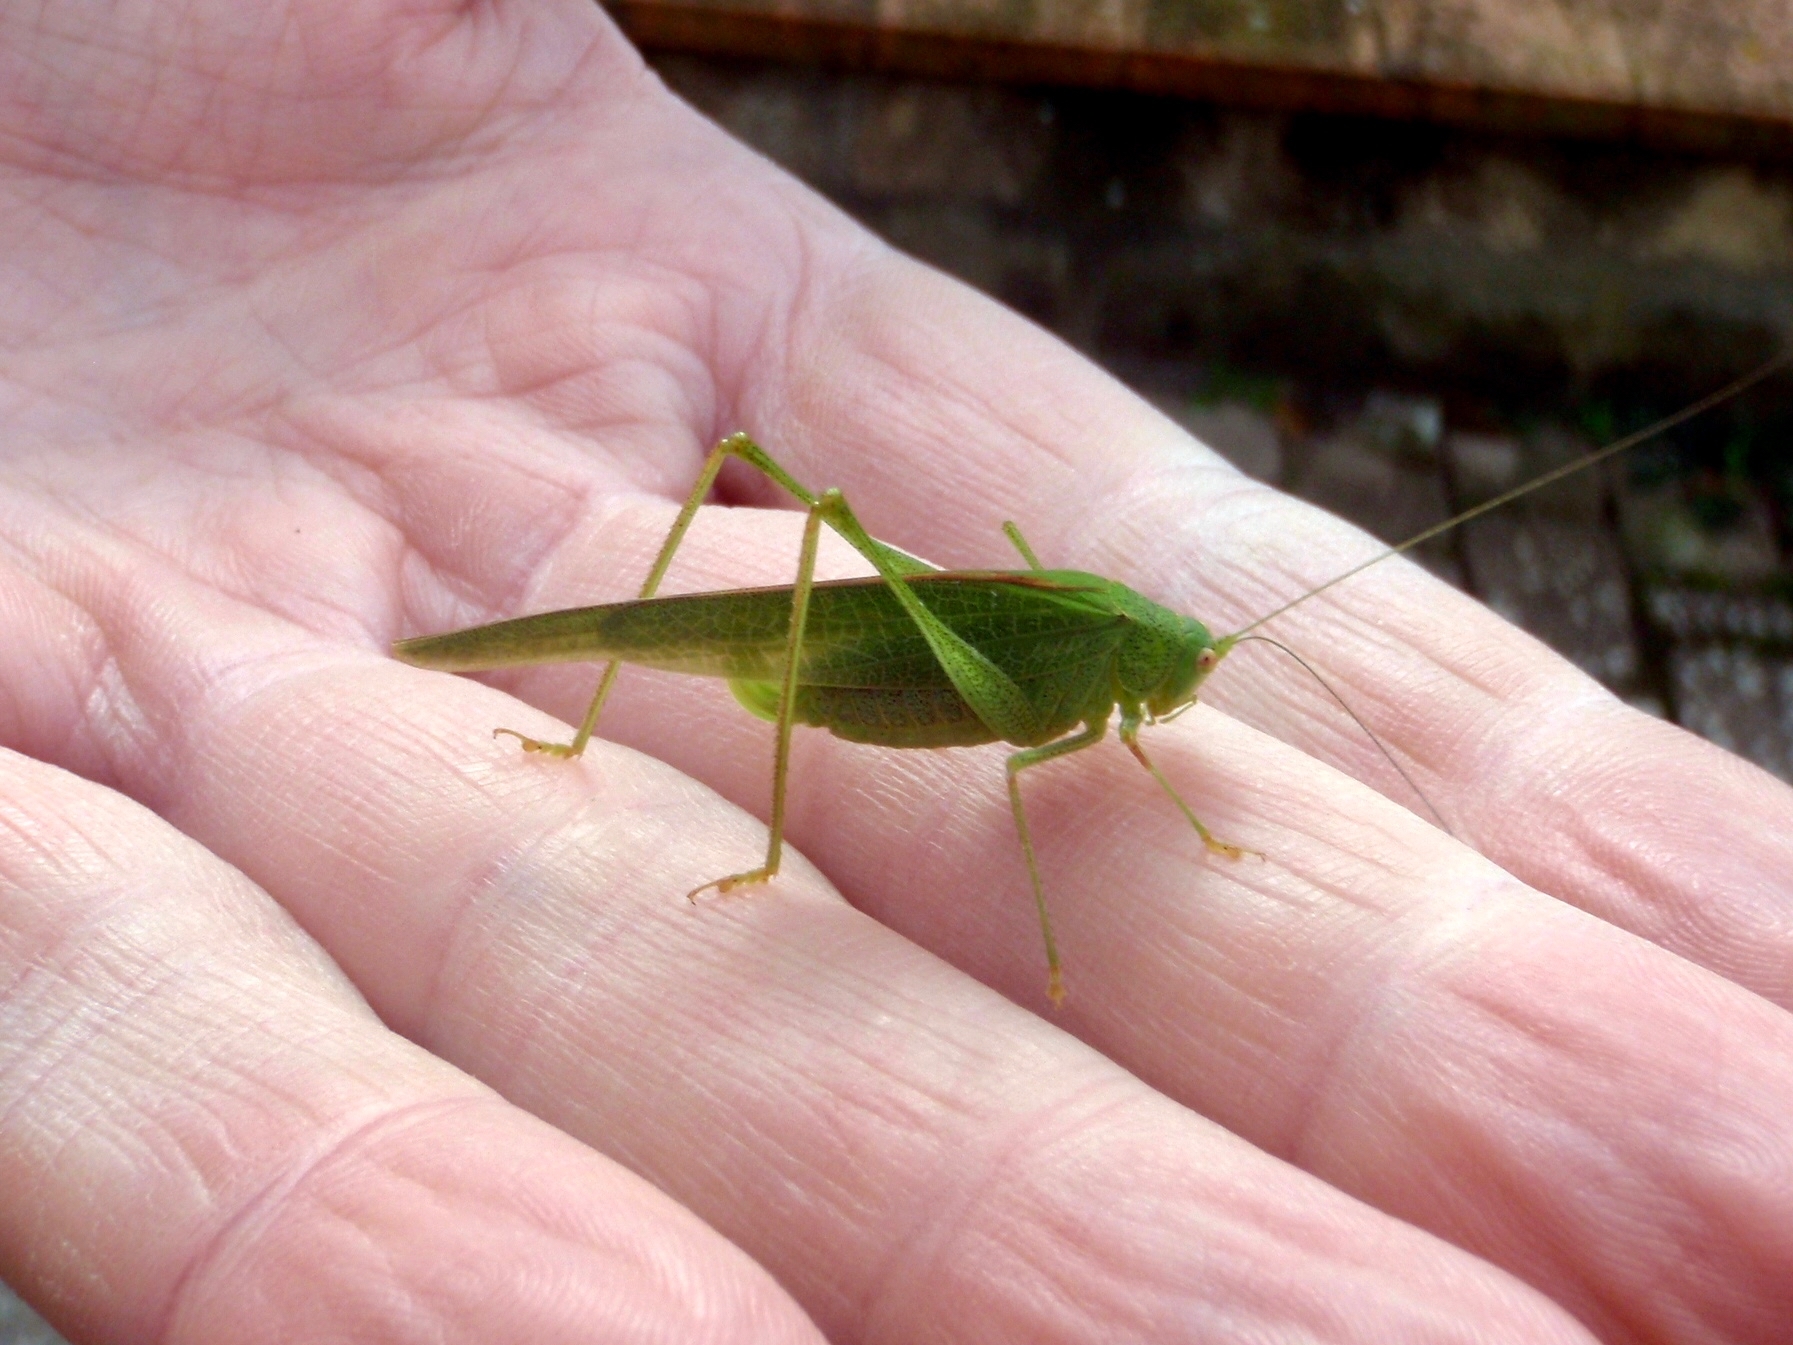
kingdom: Animalia
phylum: Arthropoda
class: Insecta
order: Orthoptera
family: Tettigoniidae
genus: Phaneroptera
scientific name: Phaneroptera nana
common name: Southern sickle bush-cricket
